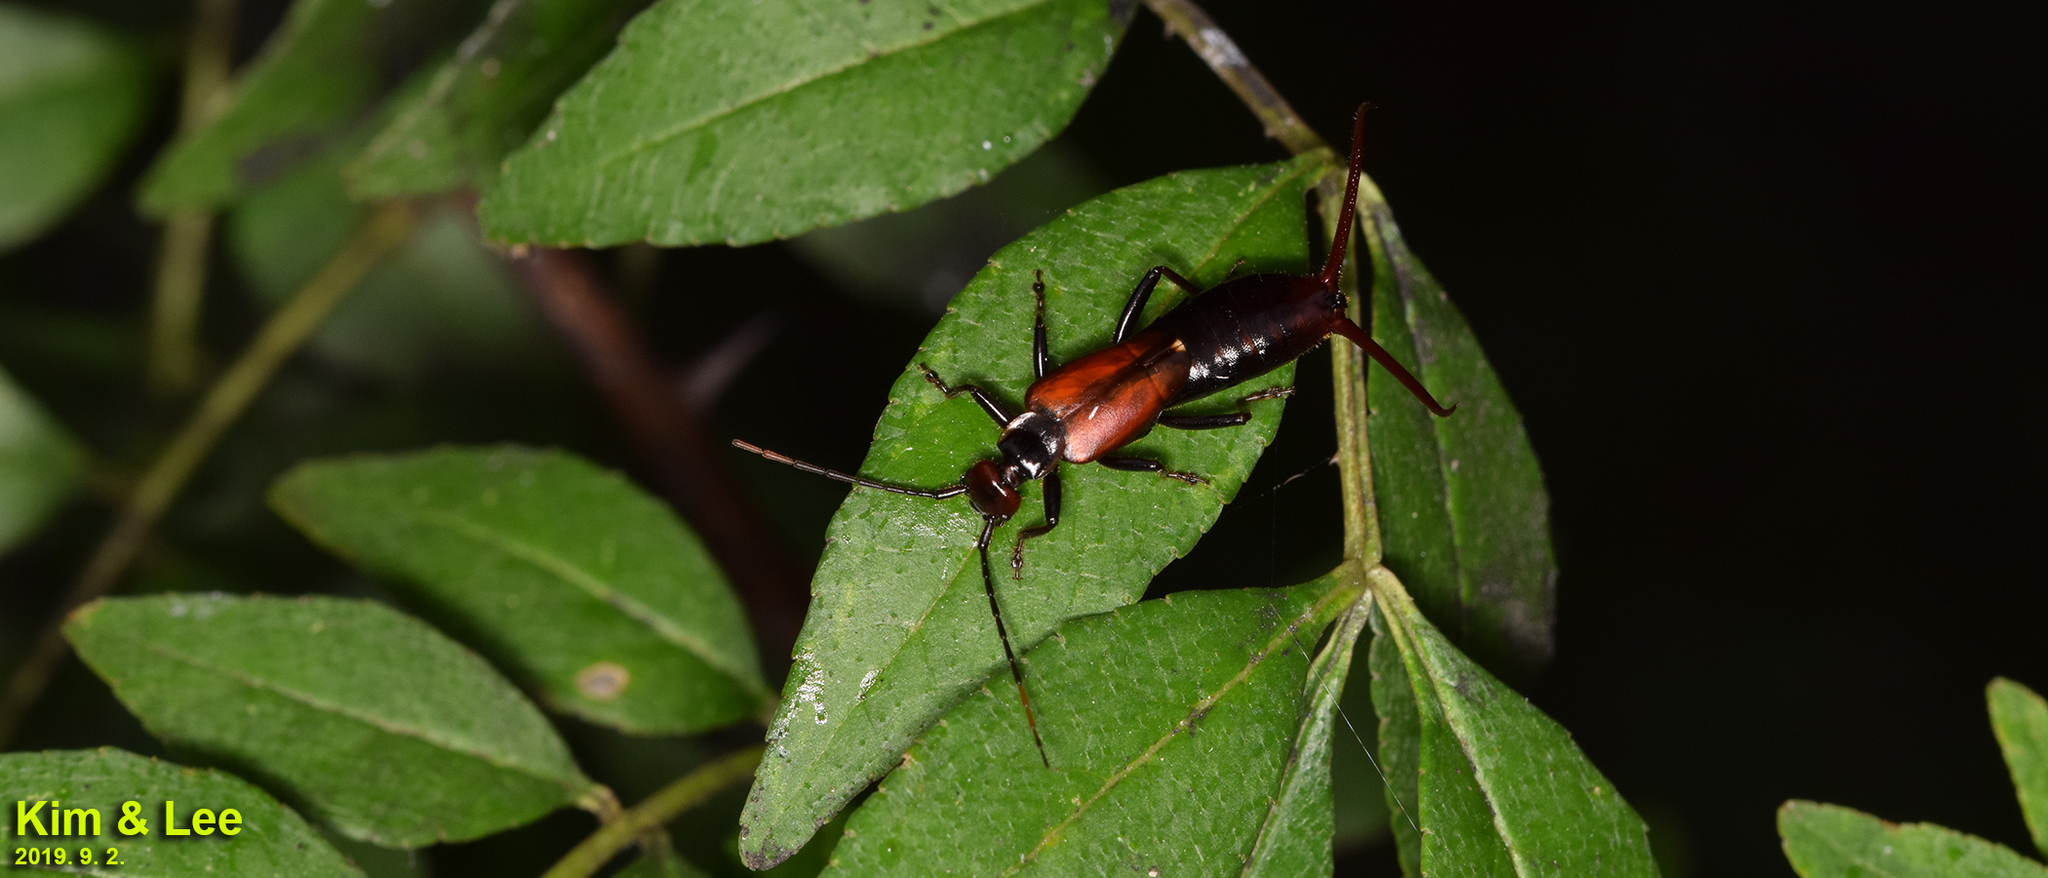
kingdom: Animalia
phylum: Arthropoda
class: Insecta
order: Dermaptera
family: Forficulidae
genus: Timomenus
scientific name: Timomenus komarovi
